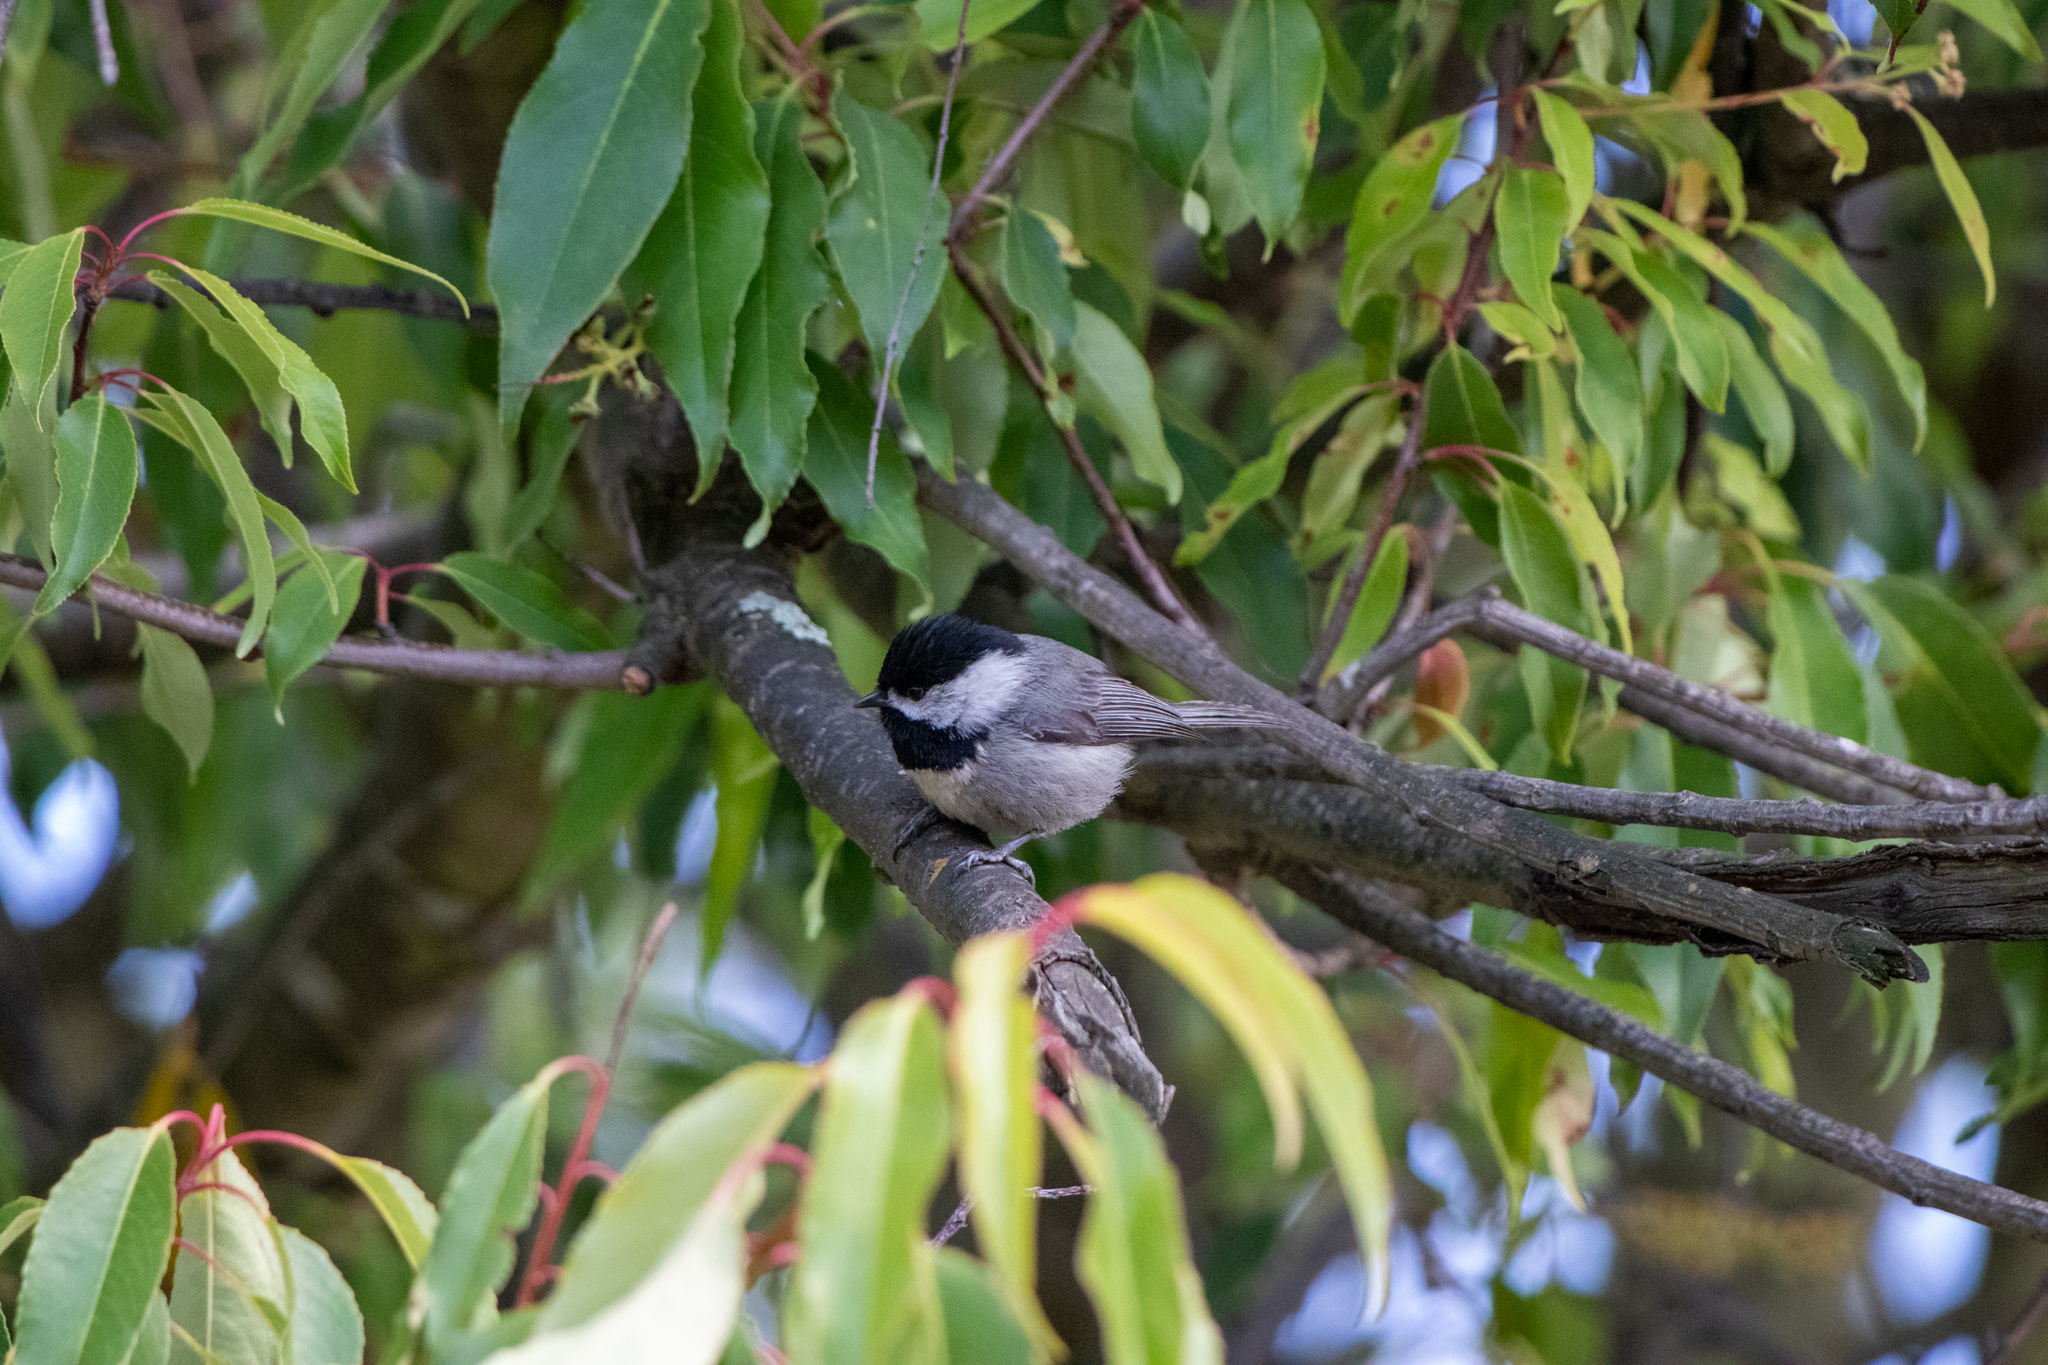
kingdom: Animalia
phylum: Chordata
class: Aves
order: Passeriformes
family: Paridae
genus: Poecile
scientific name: Poecile sclateri
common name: Mexican chickadee
